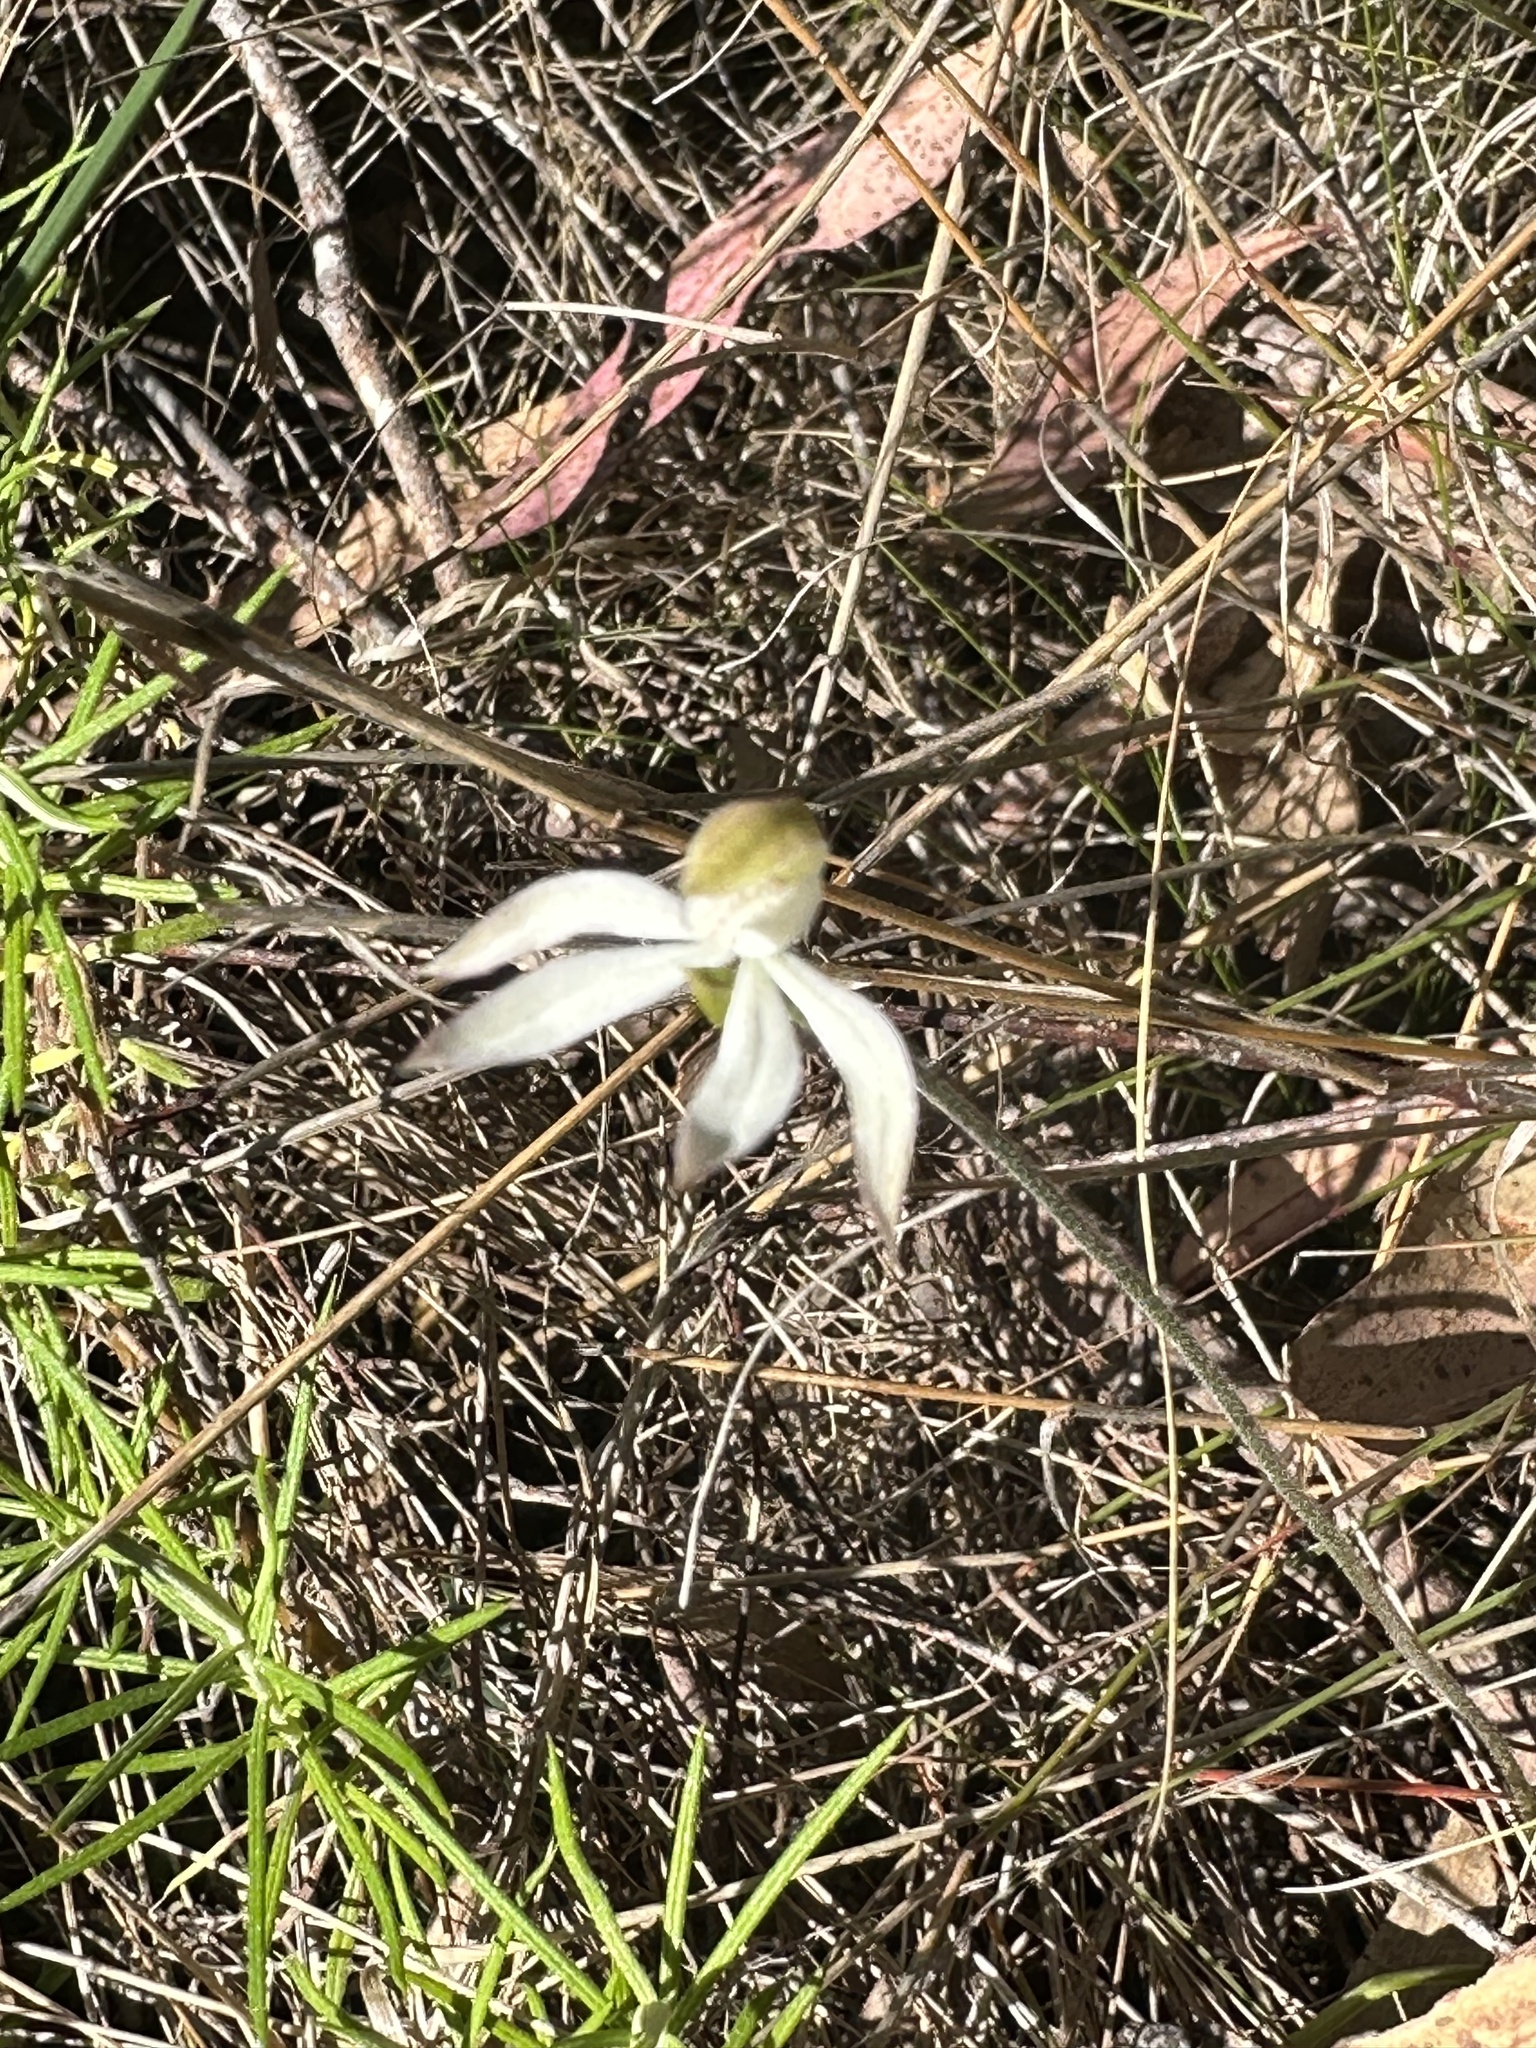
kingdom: Plantae
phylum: Tracheophyta
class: Liliopsida
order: Asparagales
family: Orchidaceae
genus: Caladenia
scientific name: Caladenia moschata
